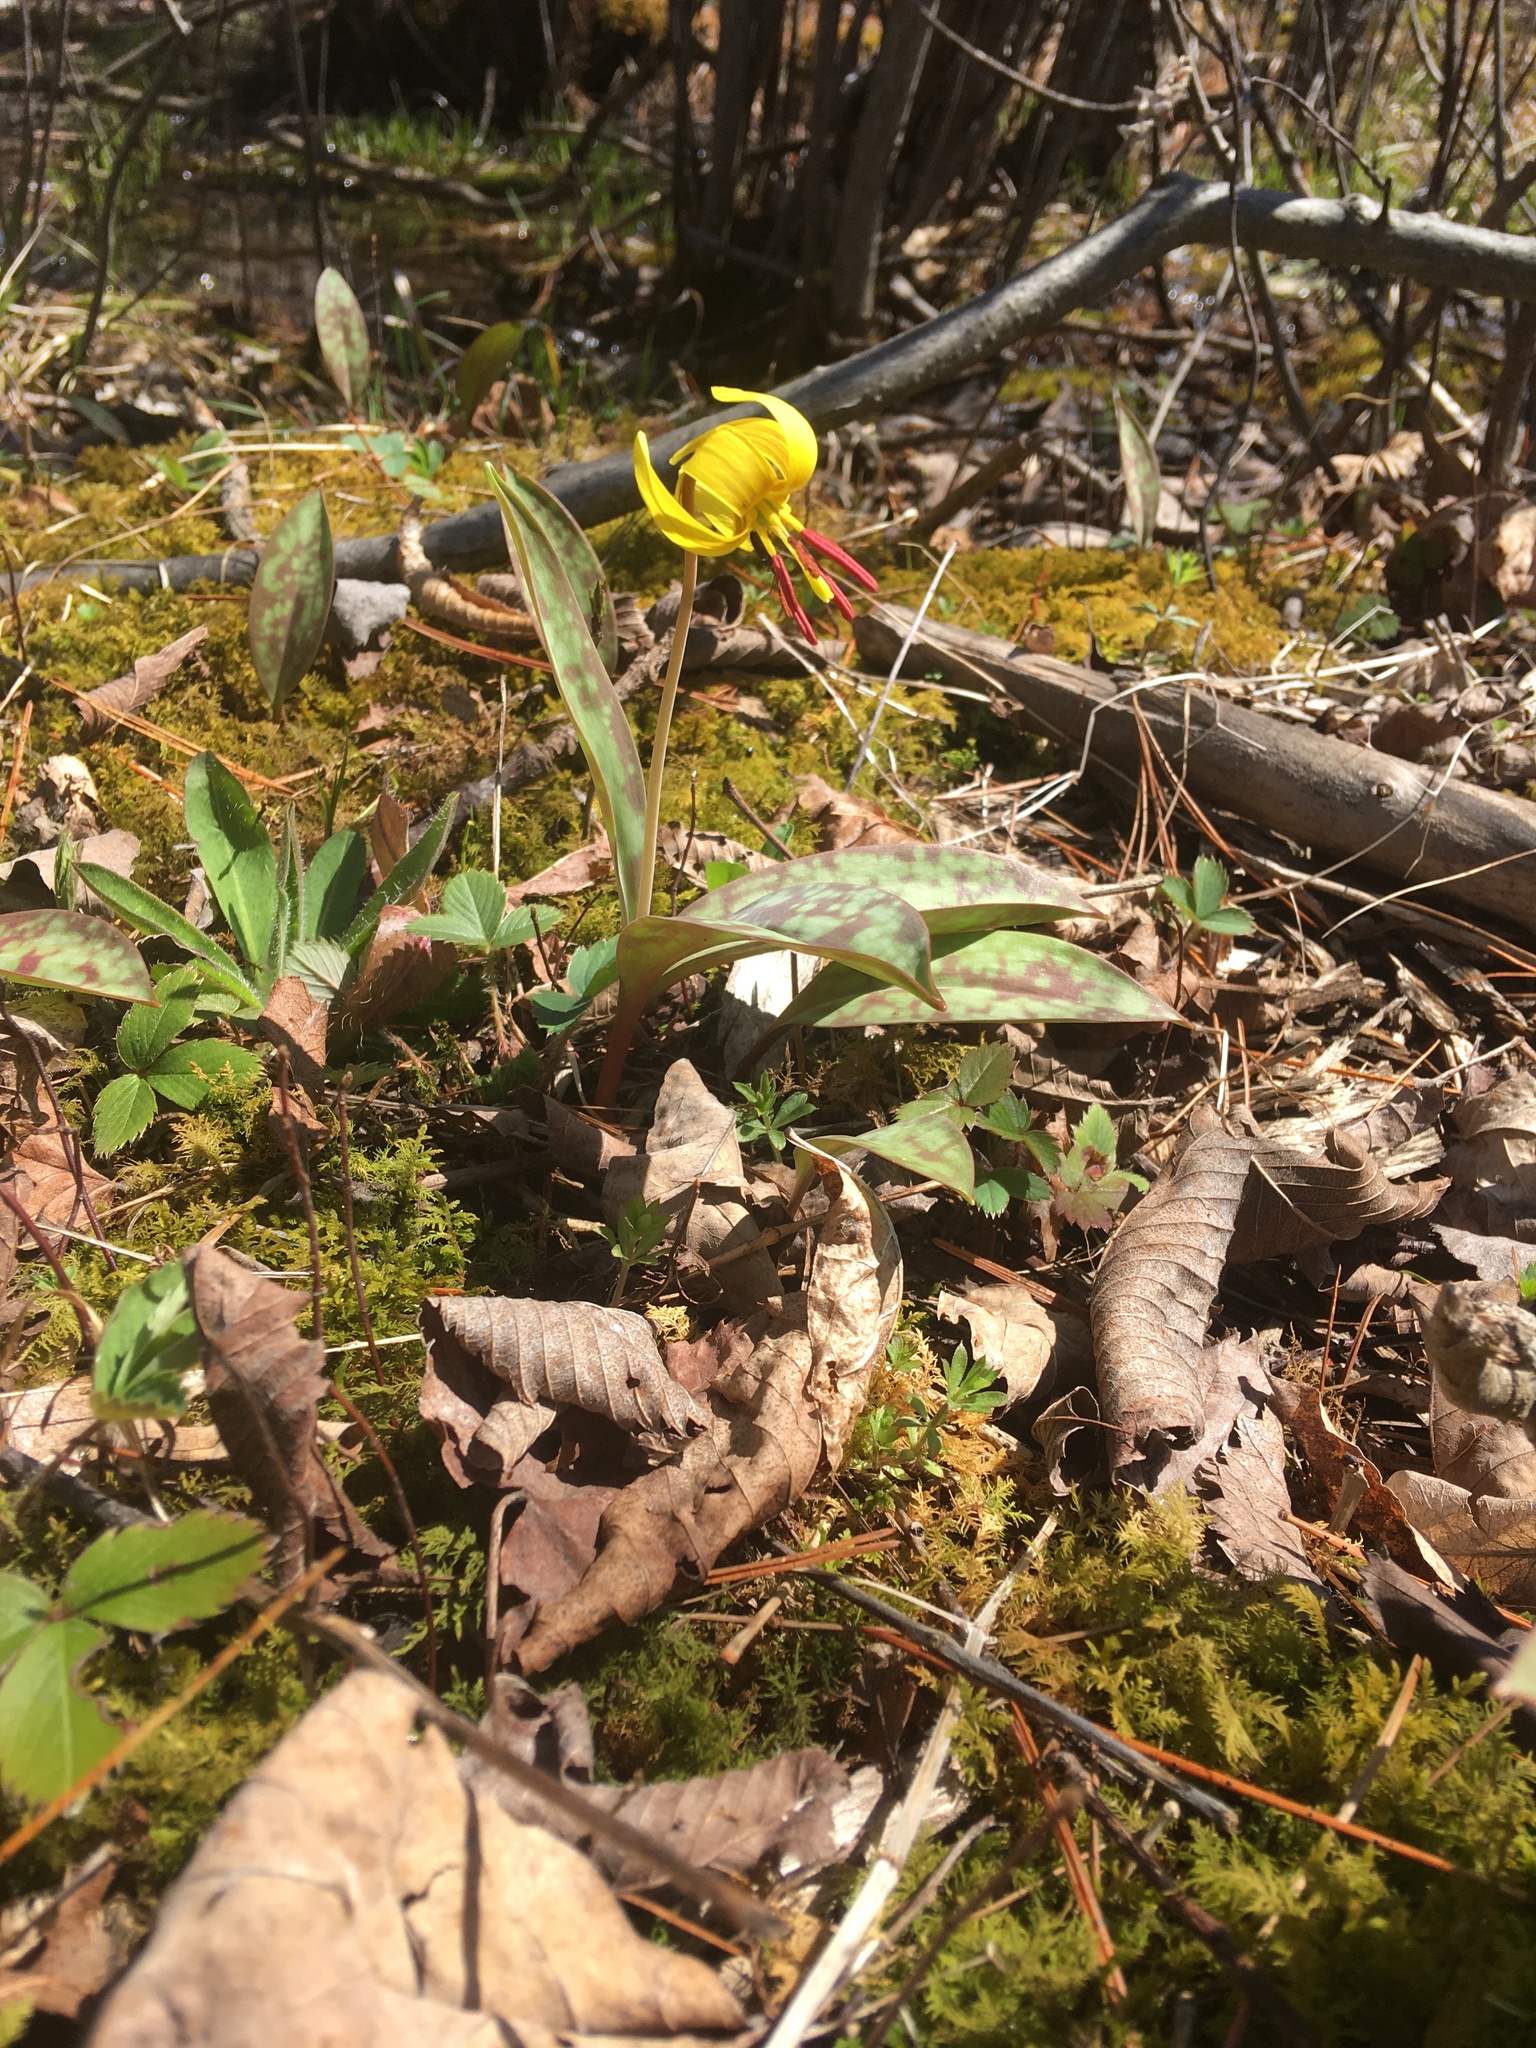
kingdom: Plantae
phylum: Tracheophyta
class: Liliopsida
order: Liliales
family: Liliaceae
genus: Erythronium
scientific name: Erythronium americanum
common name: Yellow adder's-tongue
